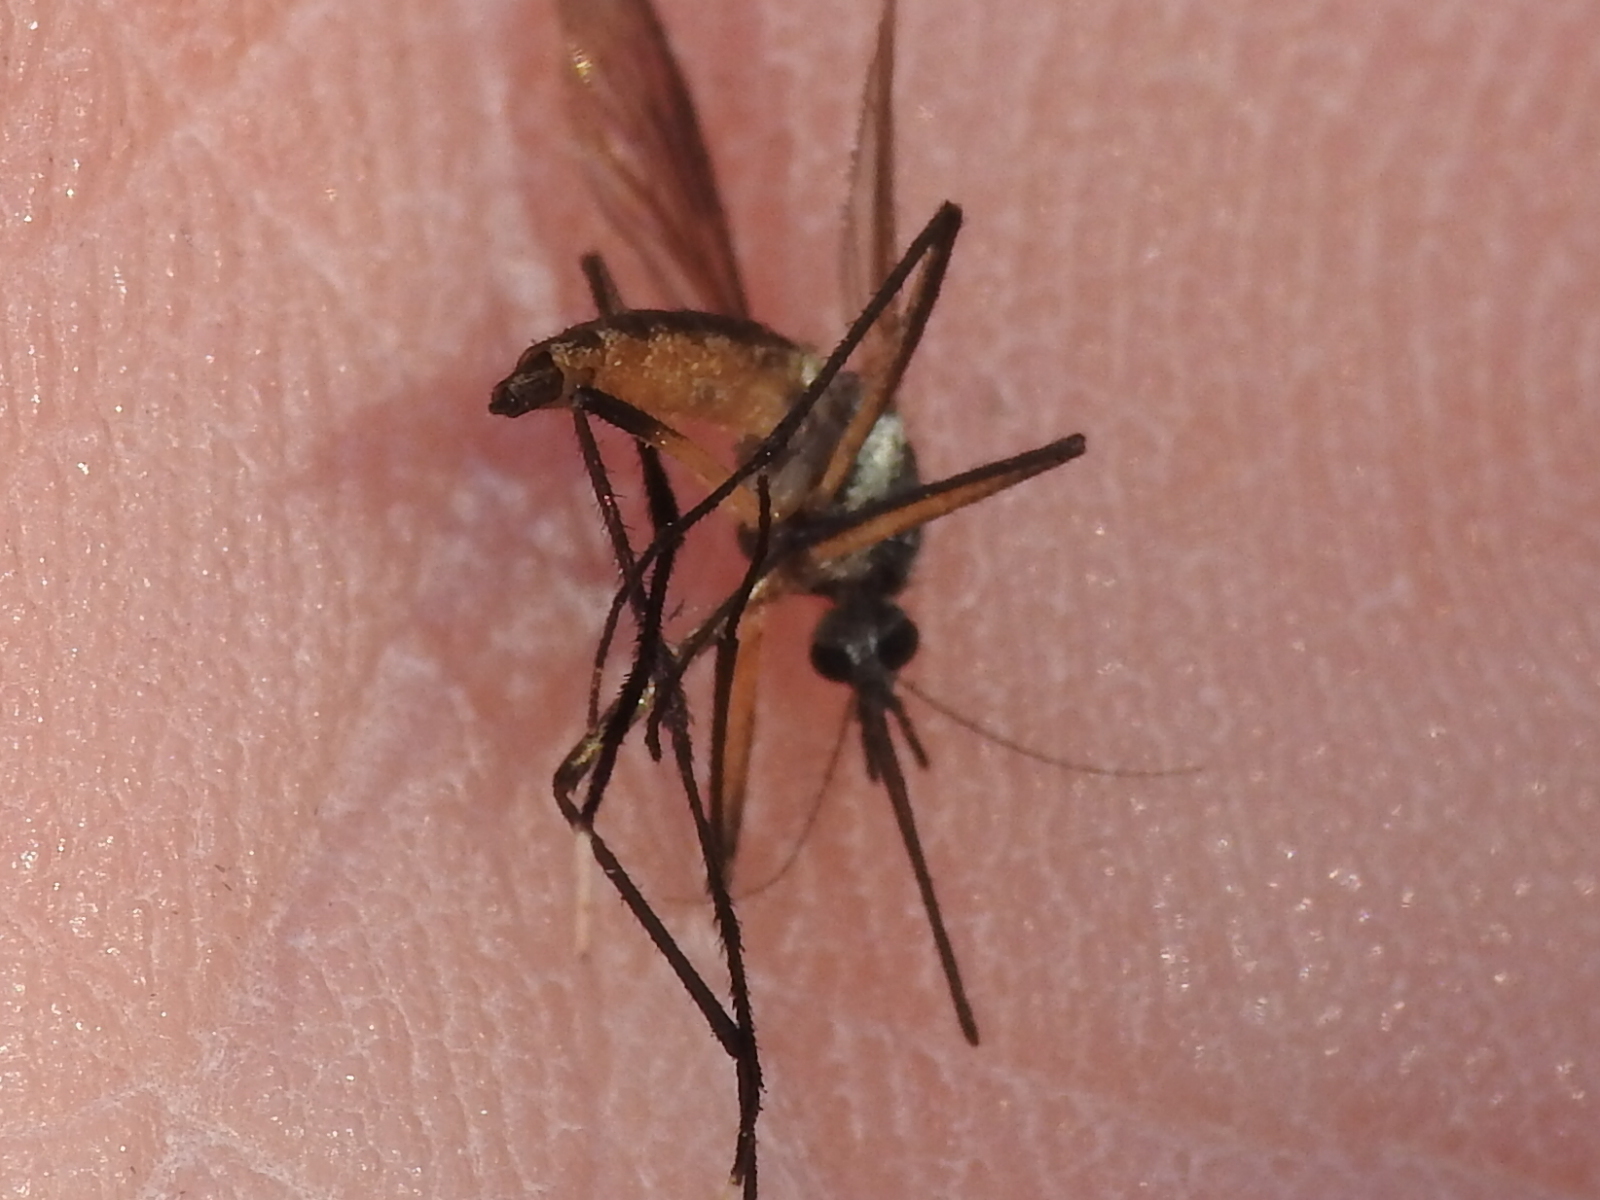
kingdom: Animalia
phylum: Arthropoda
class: Insecta
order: Diptera
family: Culicidae
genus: Psorophora
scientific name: Psorophora longipalpus
